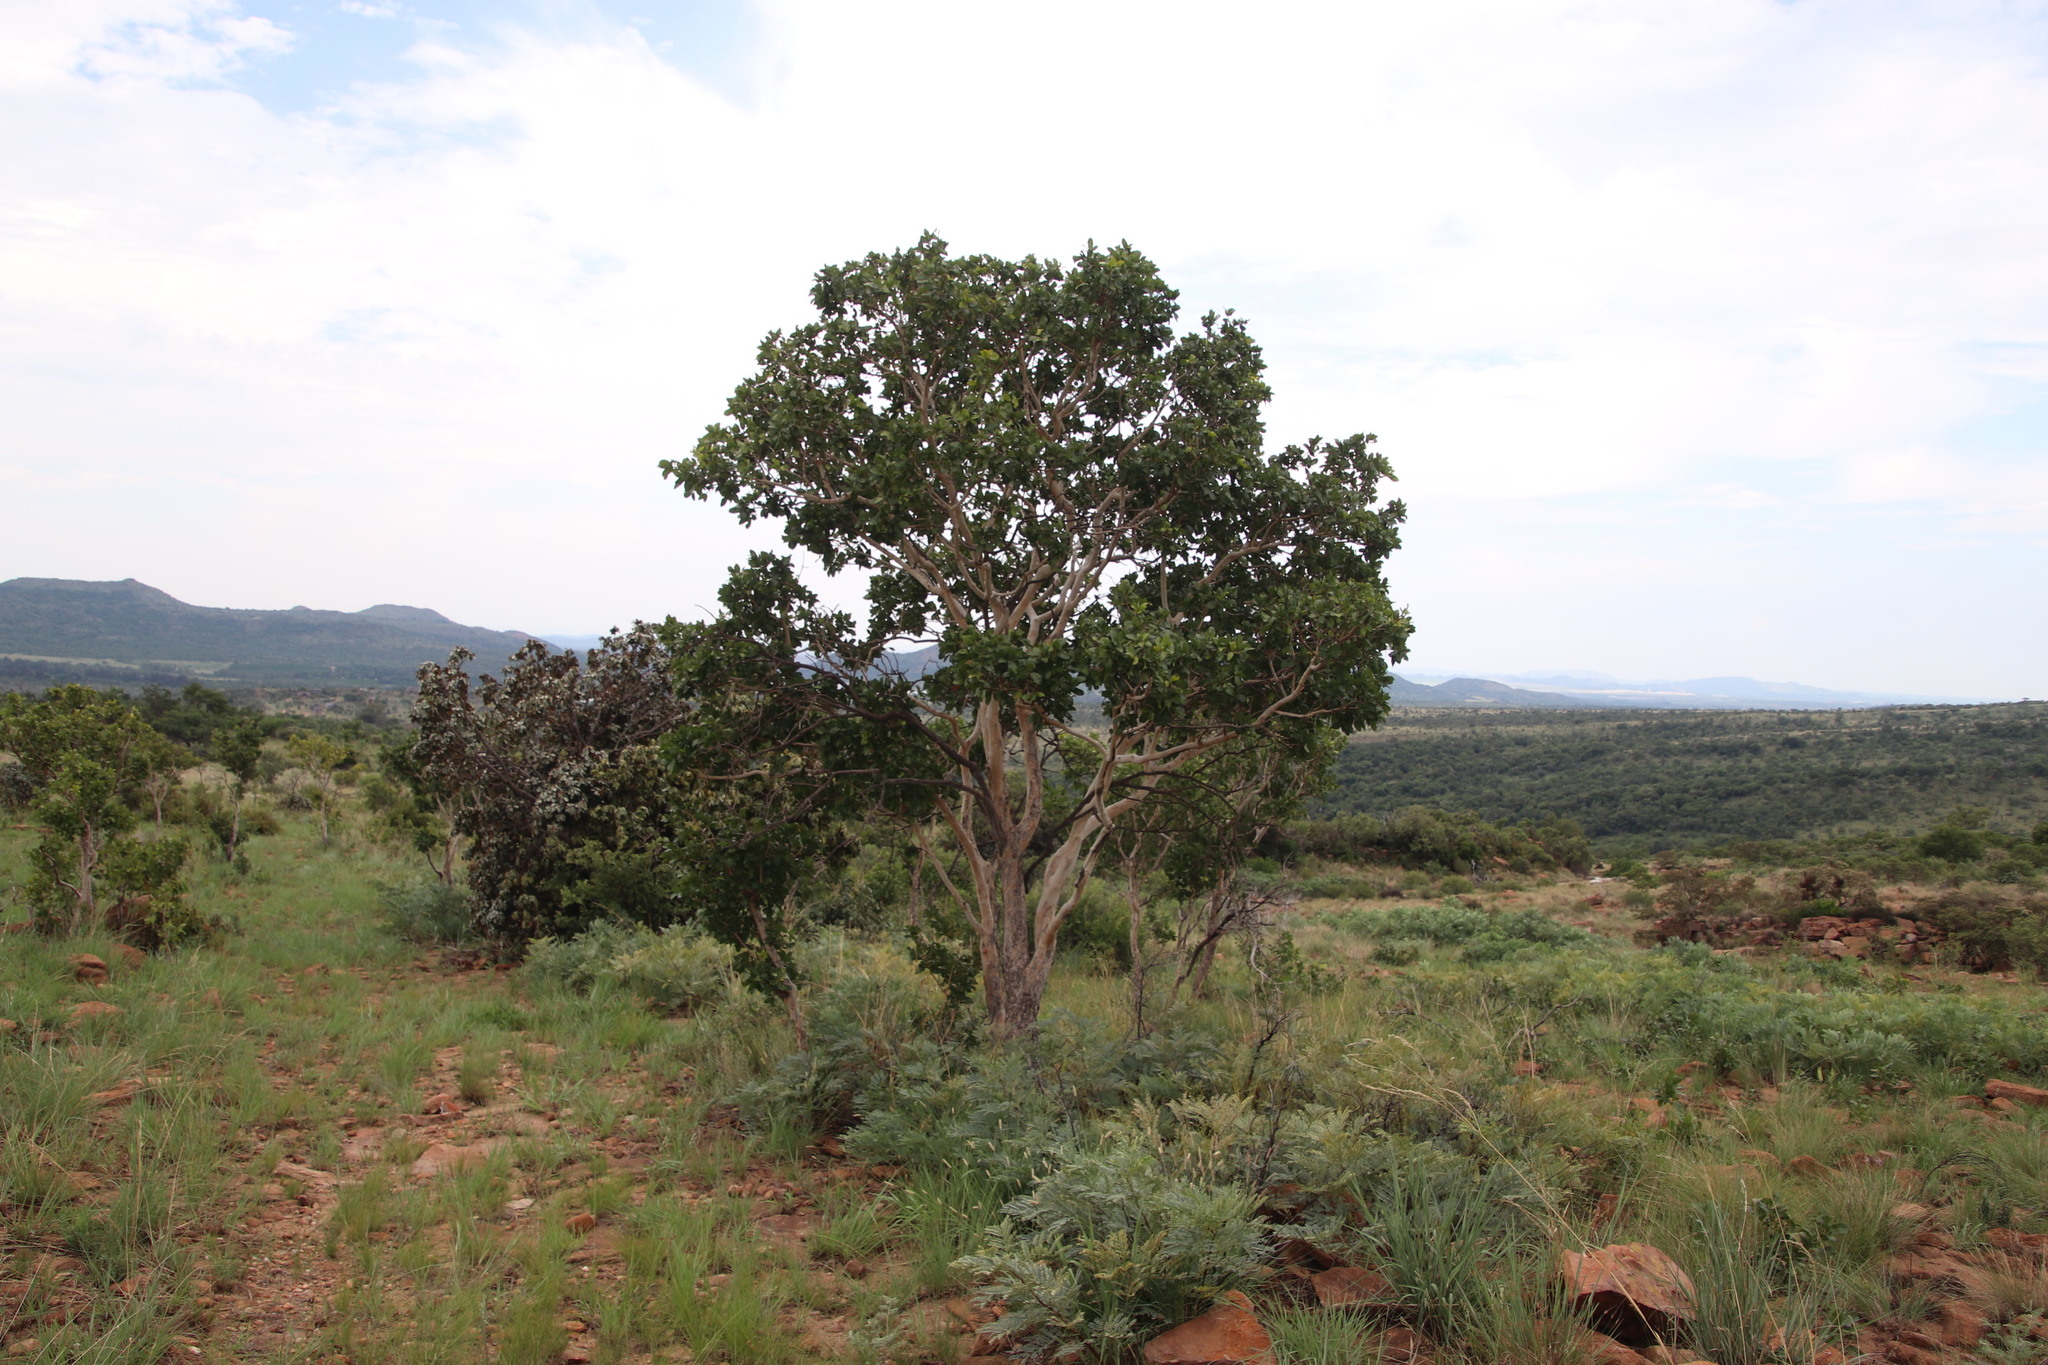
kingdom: Plantae
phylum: Tracheophyta
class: Magnoliopsida
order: Malpighiales
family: Ochnaceae
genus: Ochna
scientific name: Ochna pulchra
